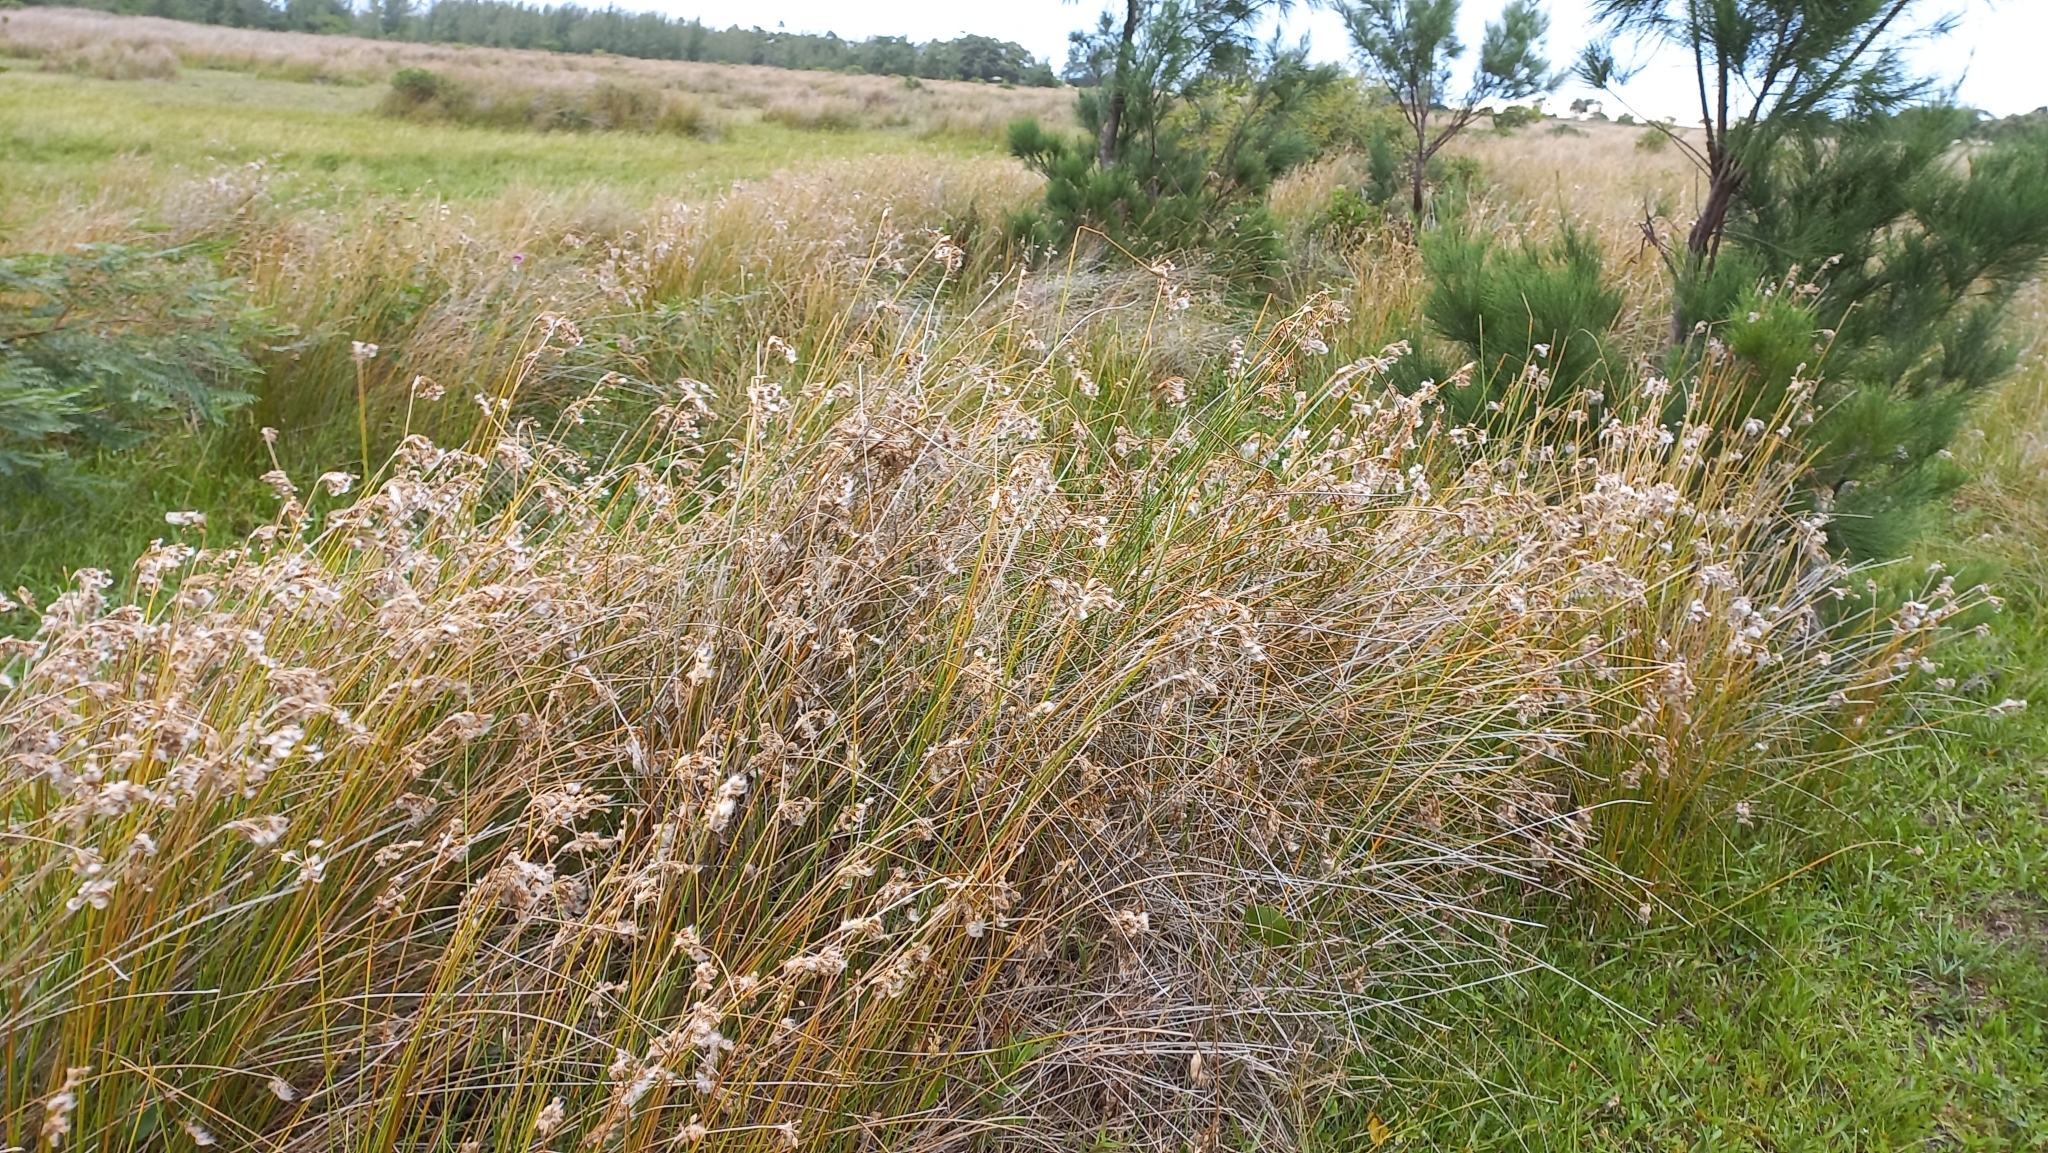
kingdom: Plantae
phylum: Tracheophyta
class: Liliopsida
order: Poales
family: Cyperaceae
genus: Cyperus
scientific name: Cyperus trigynus
